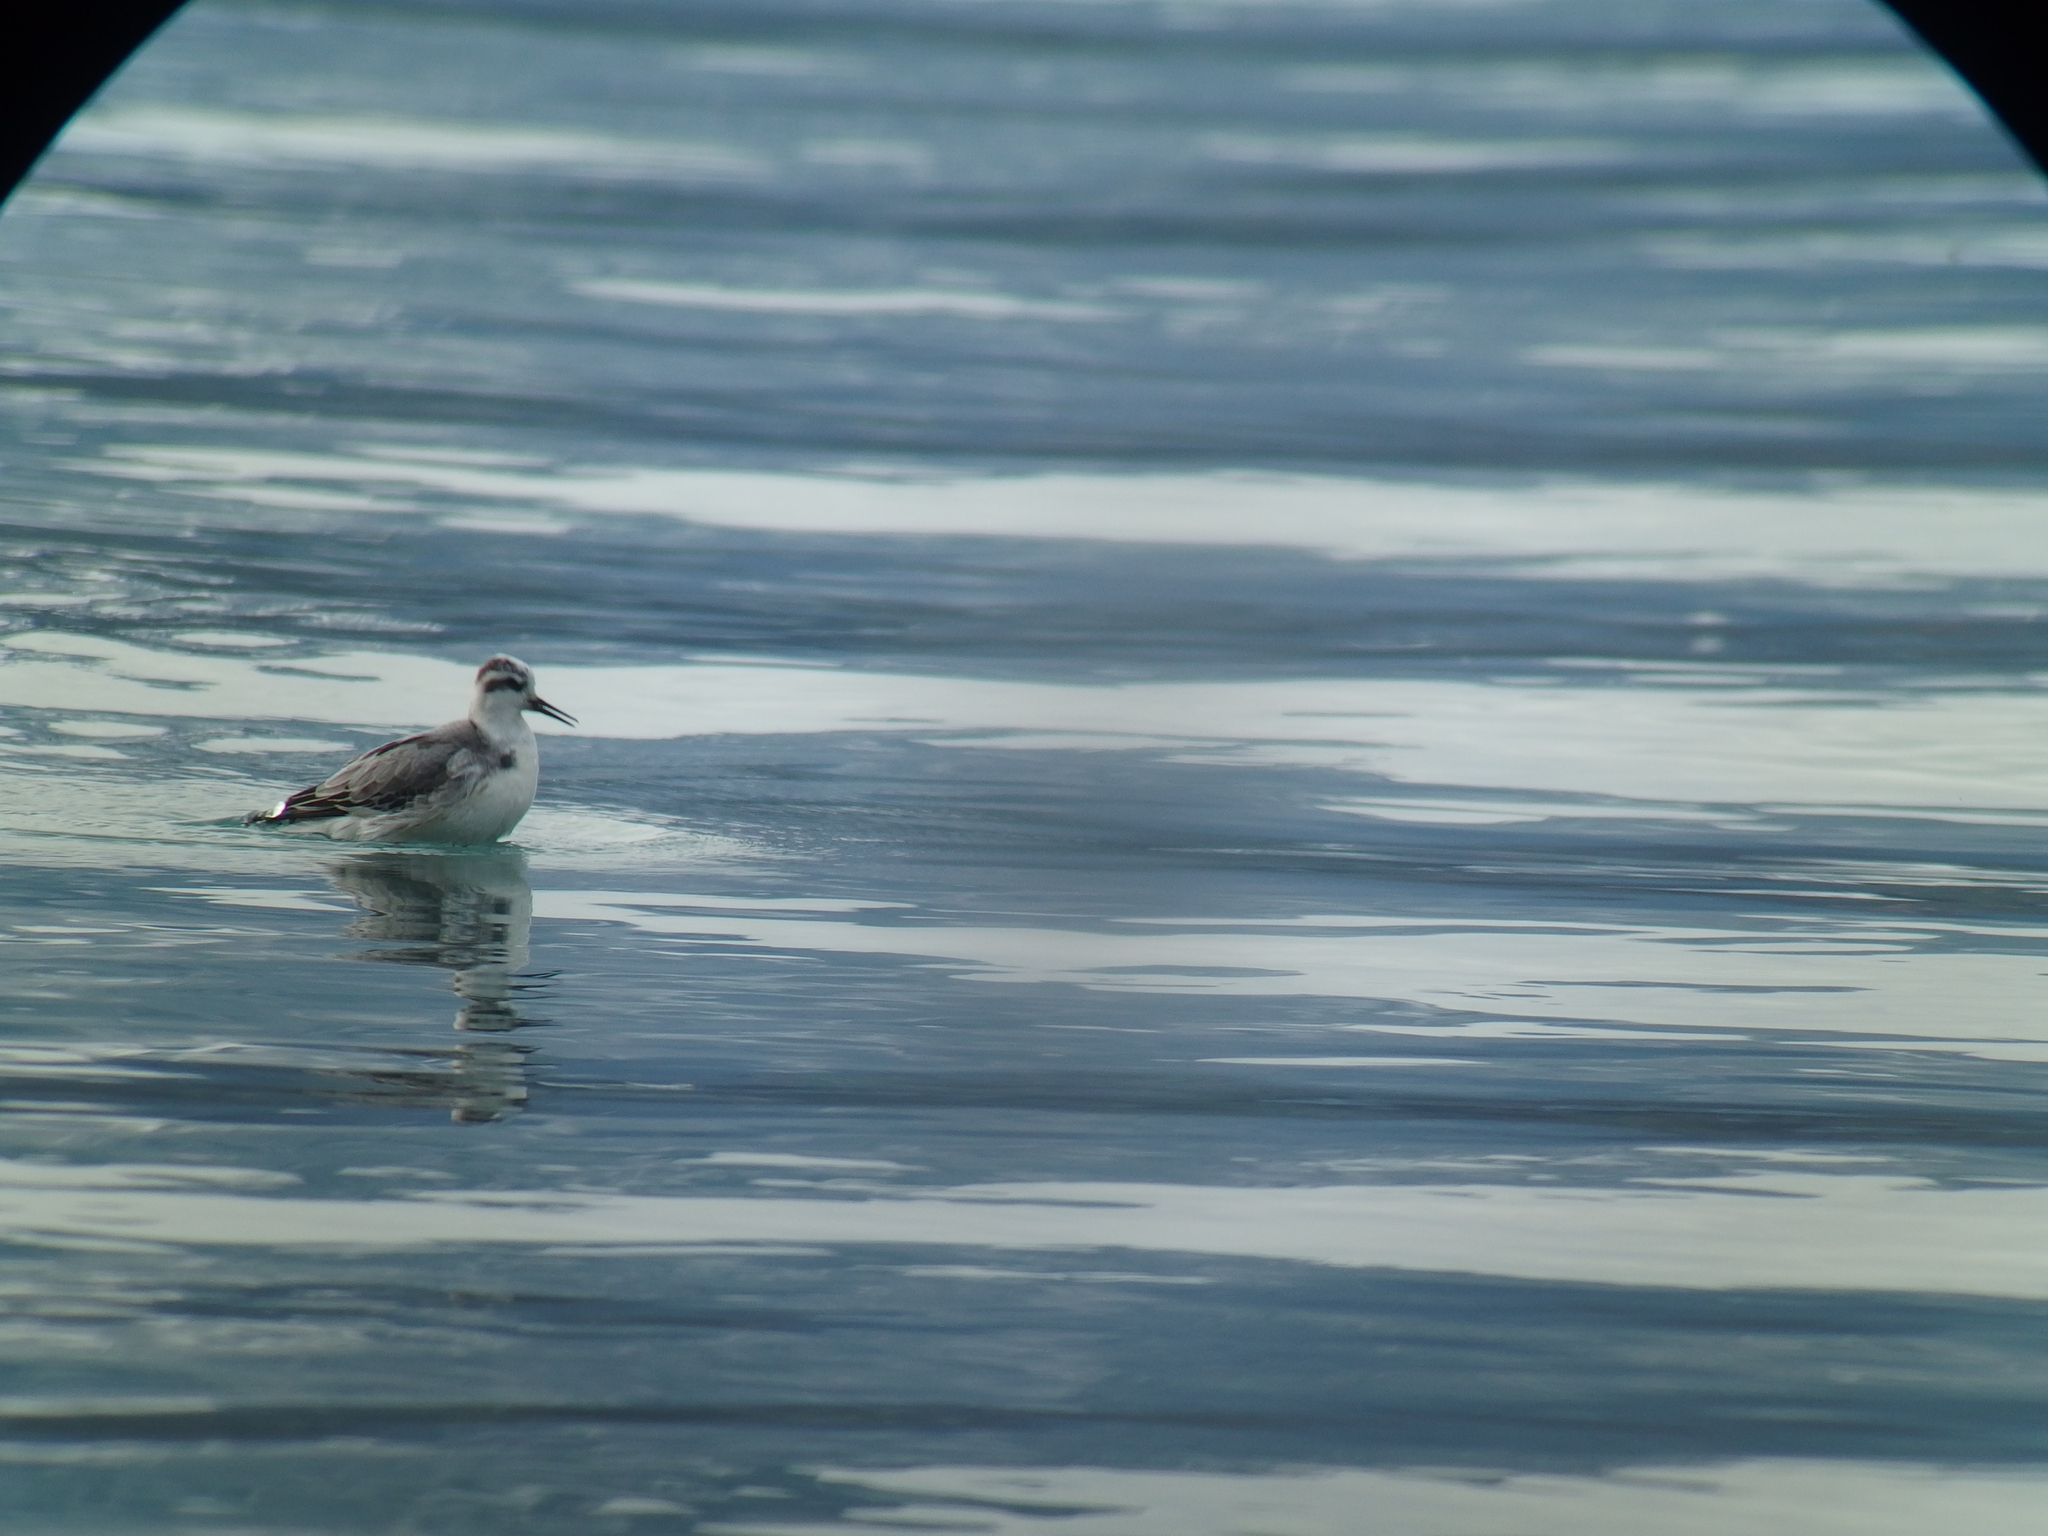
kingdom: Animalia
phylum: Chordata
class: Aves
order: Charadriiformes
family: Scolopacidae
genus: Phalaropus
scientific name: Phalaropus fulicarius
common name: Red phalarope
